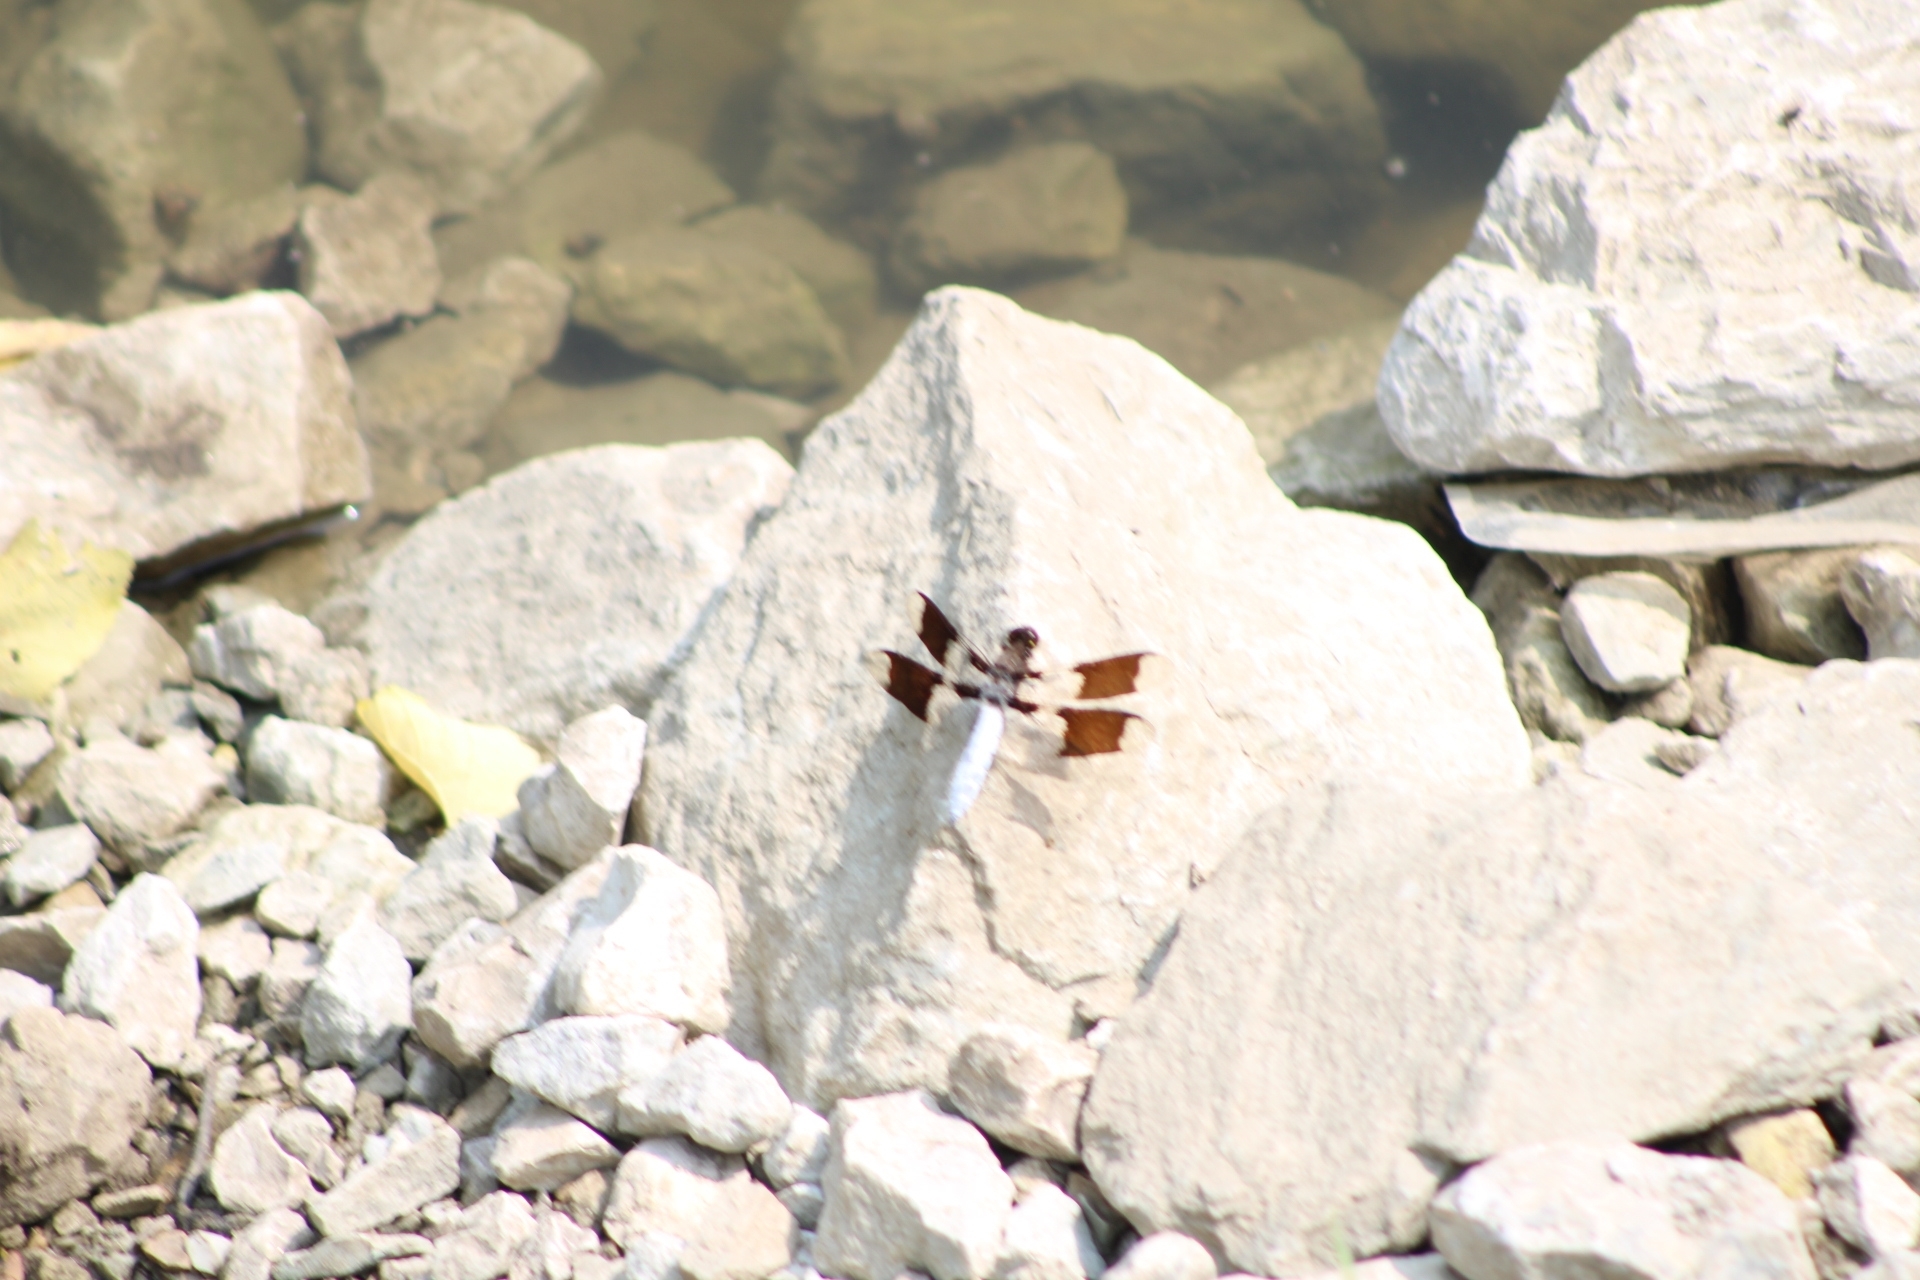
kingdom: Animalia
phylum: Arthropoda
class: Insecta
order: Odonata
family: Libellulidae
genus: Plathemis
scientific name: Plathemis lydia
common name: Common whitetail
